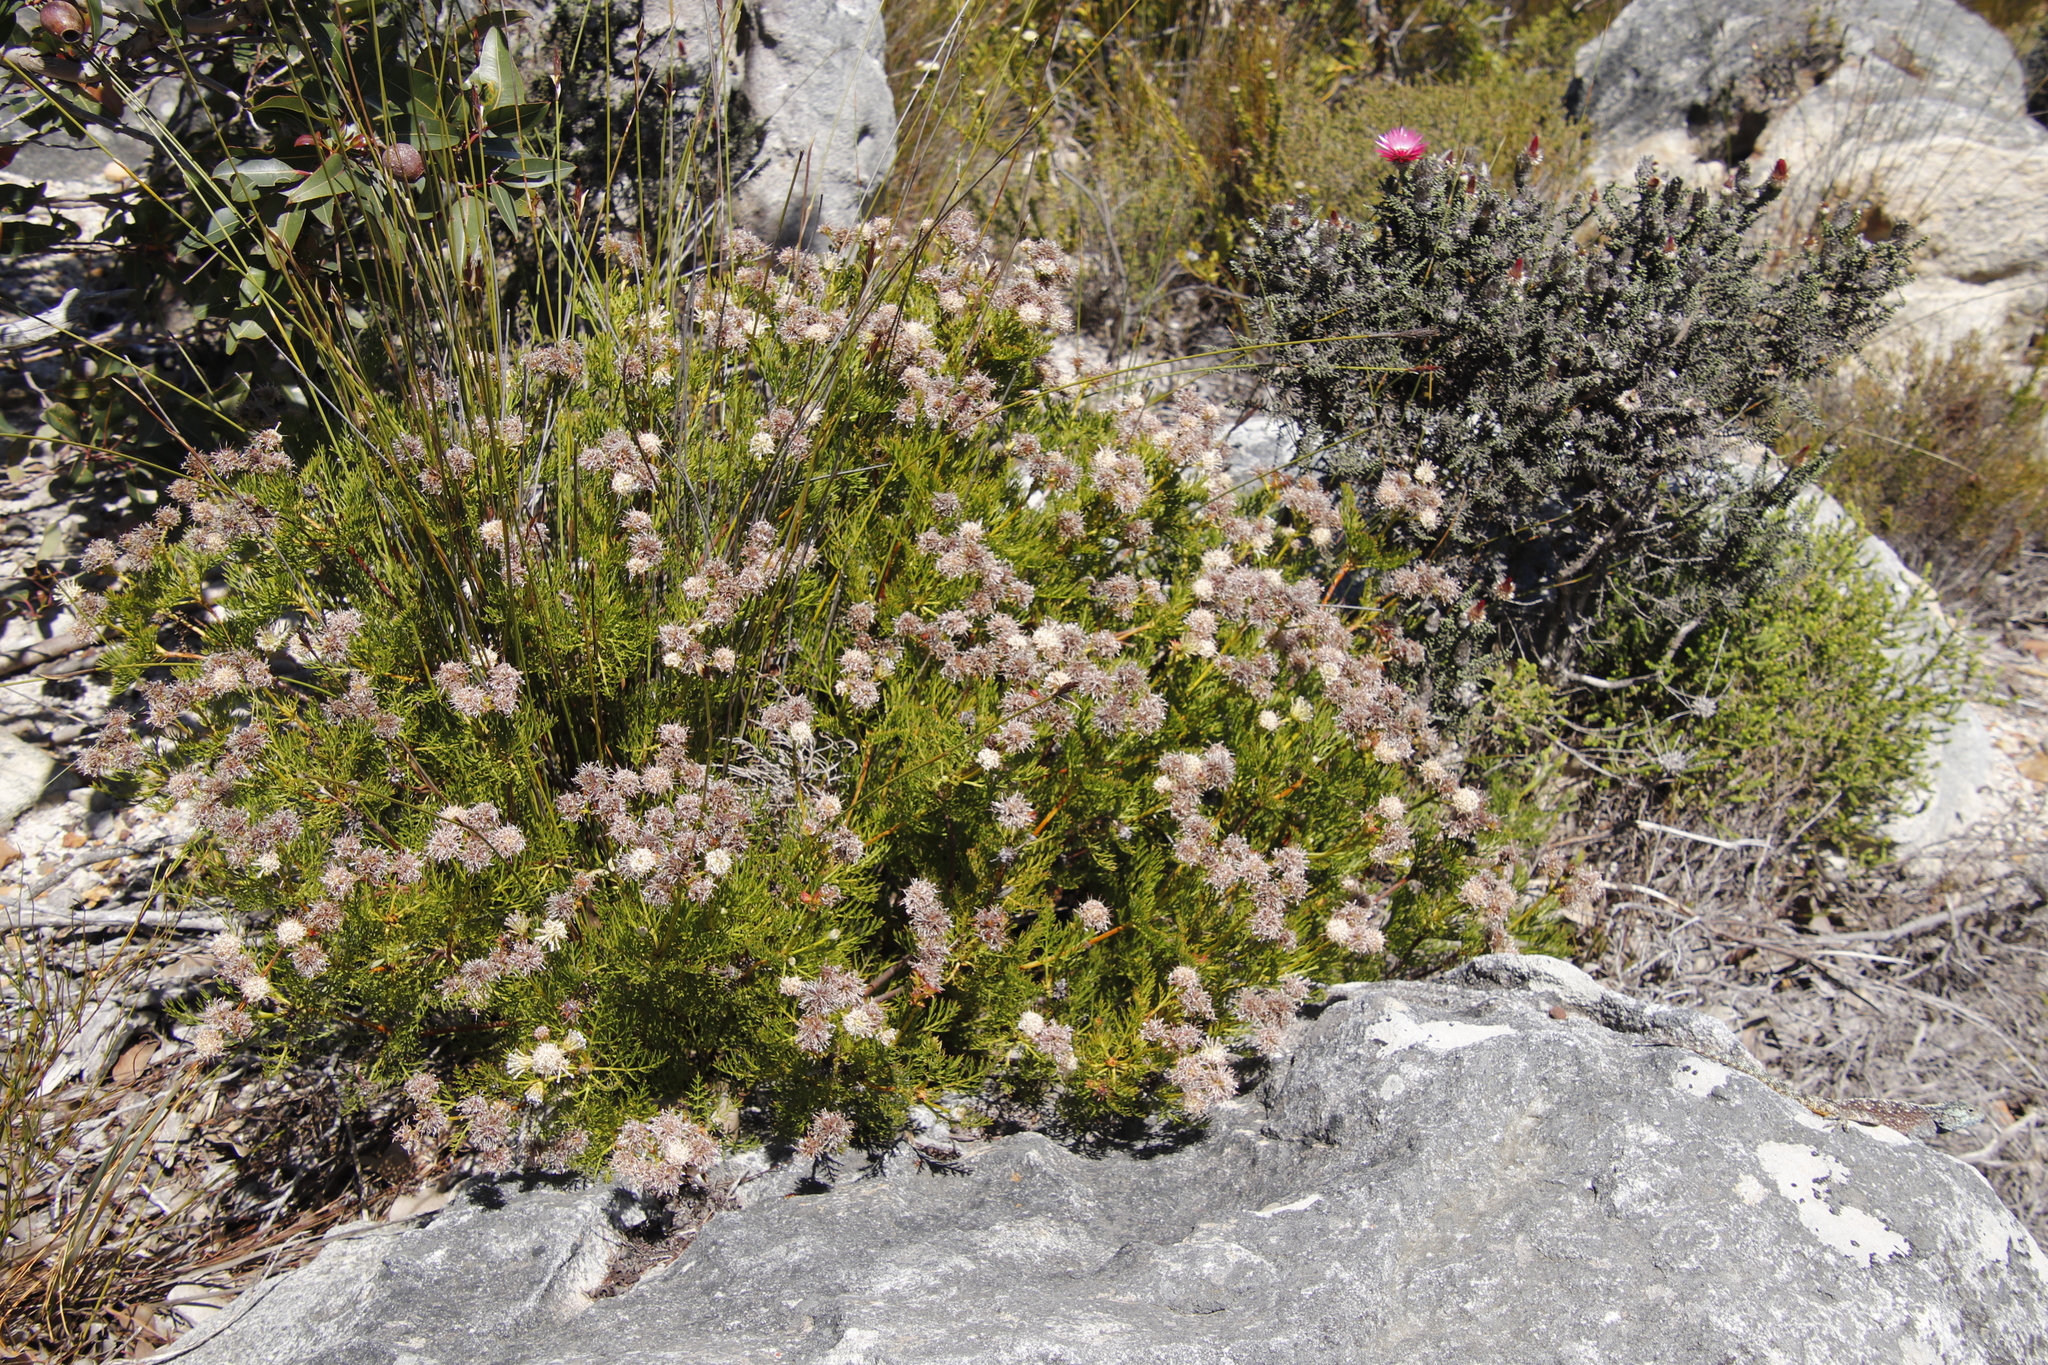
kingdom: Plantae
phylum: Tracheophyta
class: Magnoliopsida
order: Proteales
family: Proteaceae
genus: Serruria
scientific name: Serruria elongata
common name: Long-stalk spiderhead
